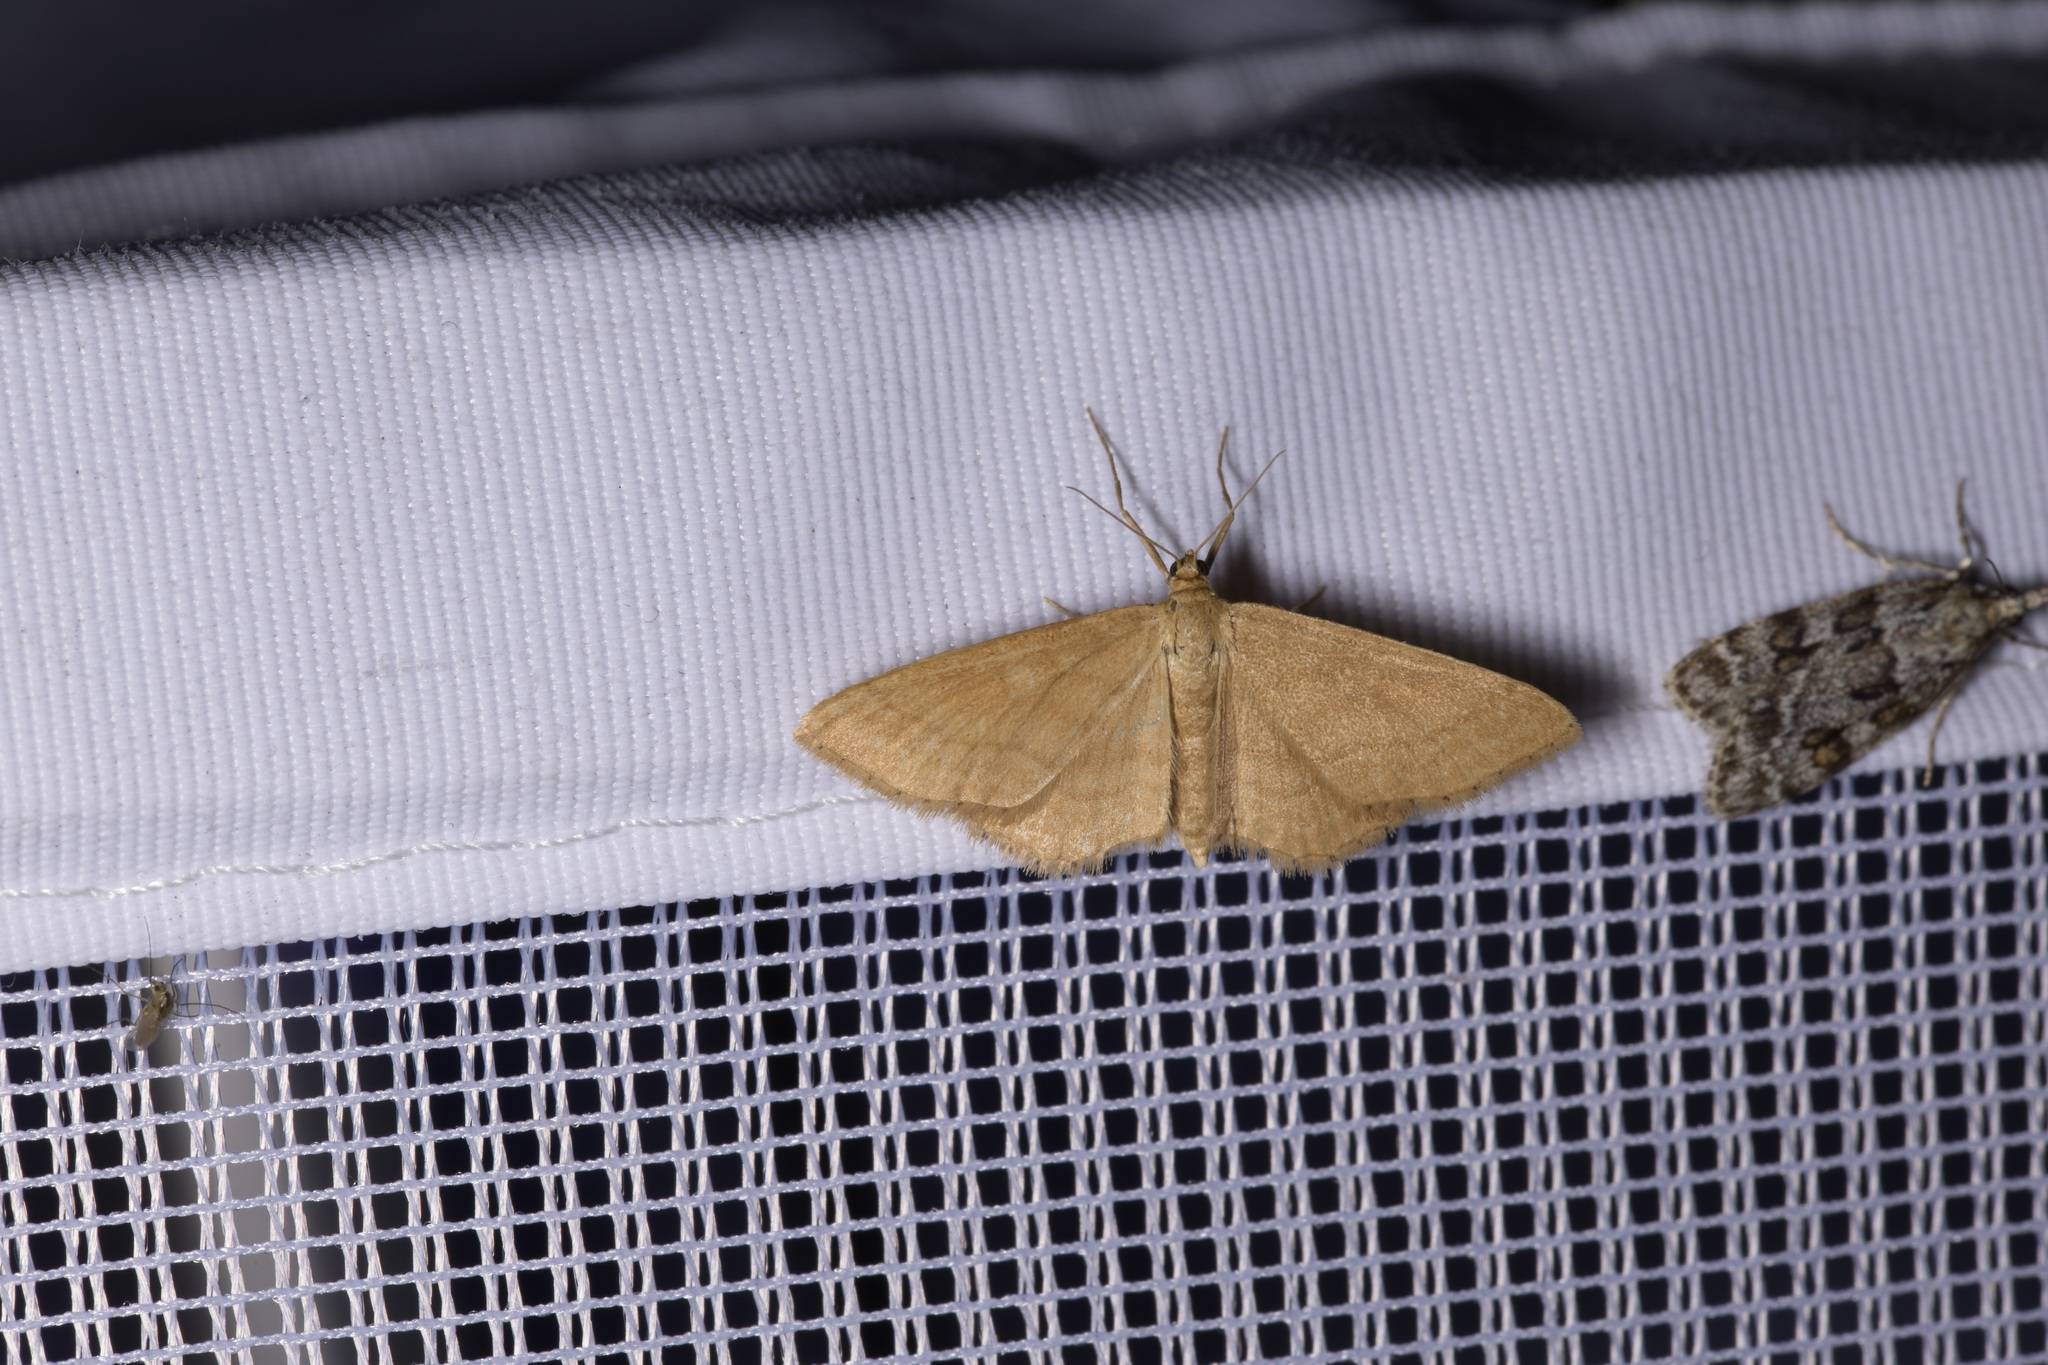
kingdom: Animalia
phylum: Arthropoda
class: Insecta
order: Lepidoptera
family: Geometridae
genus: Idaea
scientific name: Idaea ochrata
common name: Bright wave
